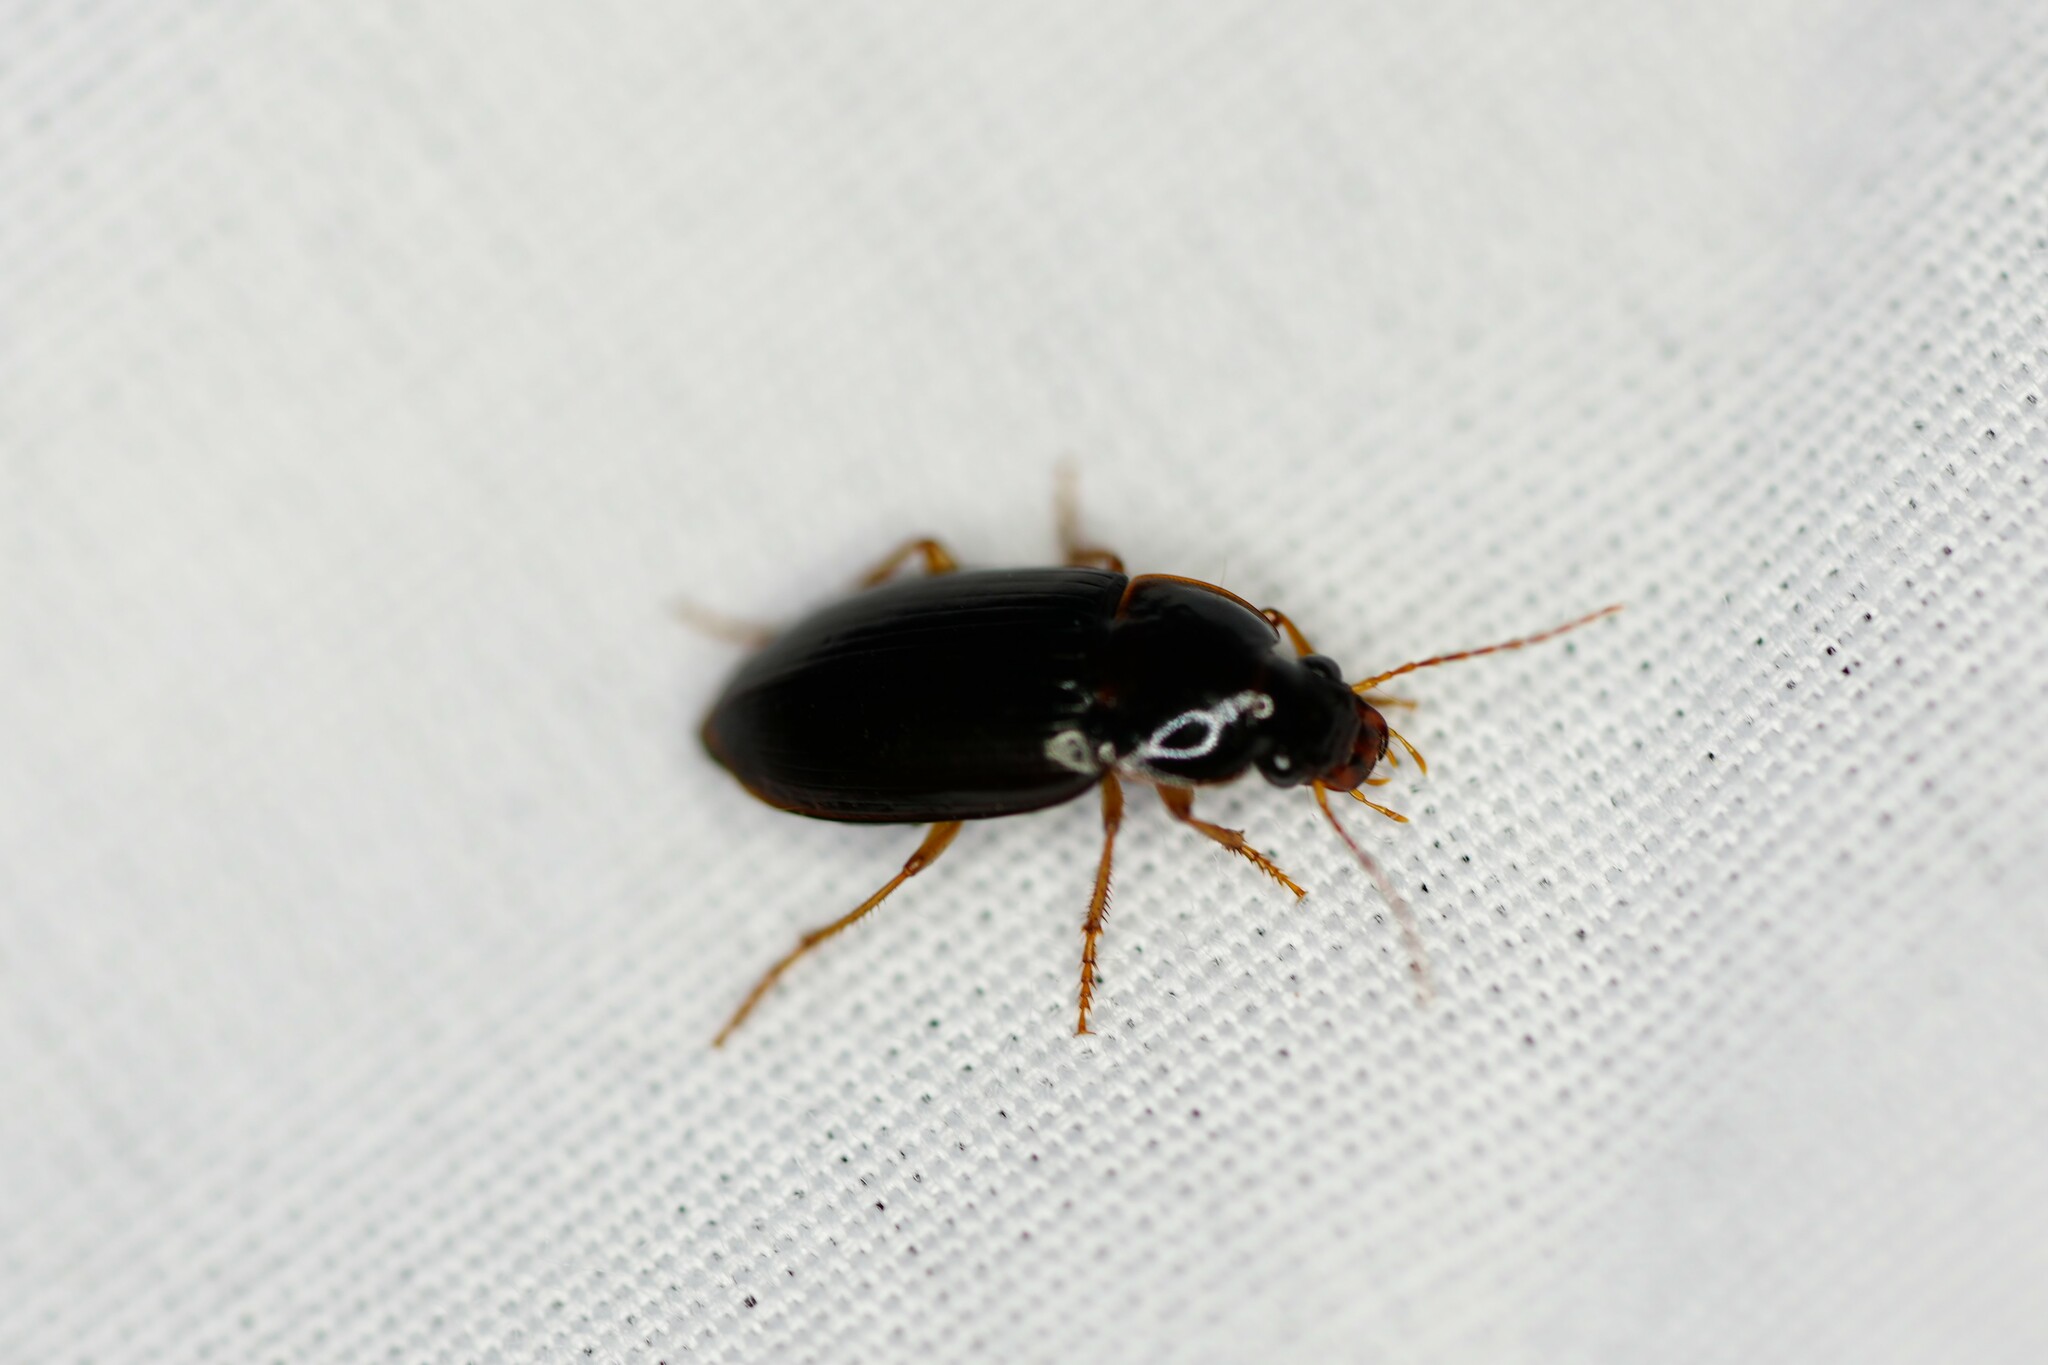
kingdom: Animalia
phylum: Arthropoda
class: Insecta
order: Coleoptera
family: Carabidae
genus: Notiobia
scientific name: Notiobia terminata
